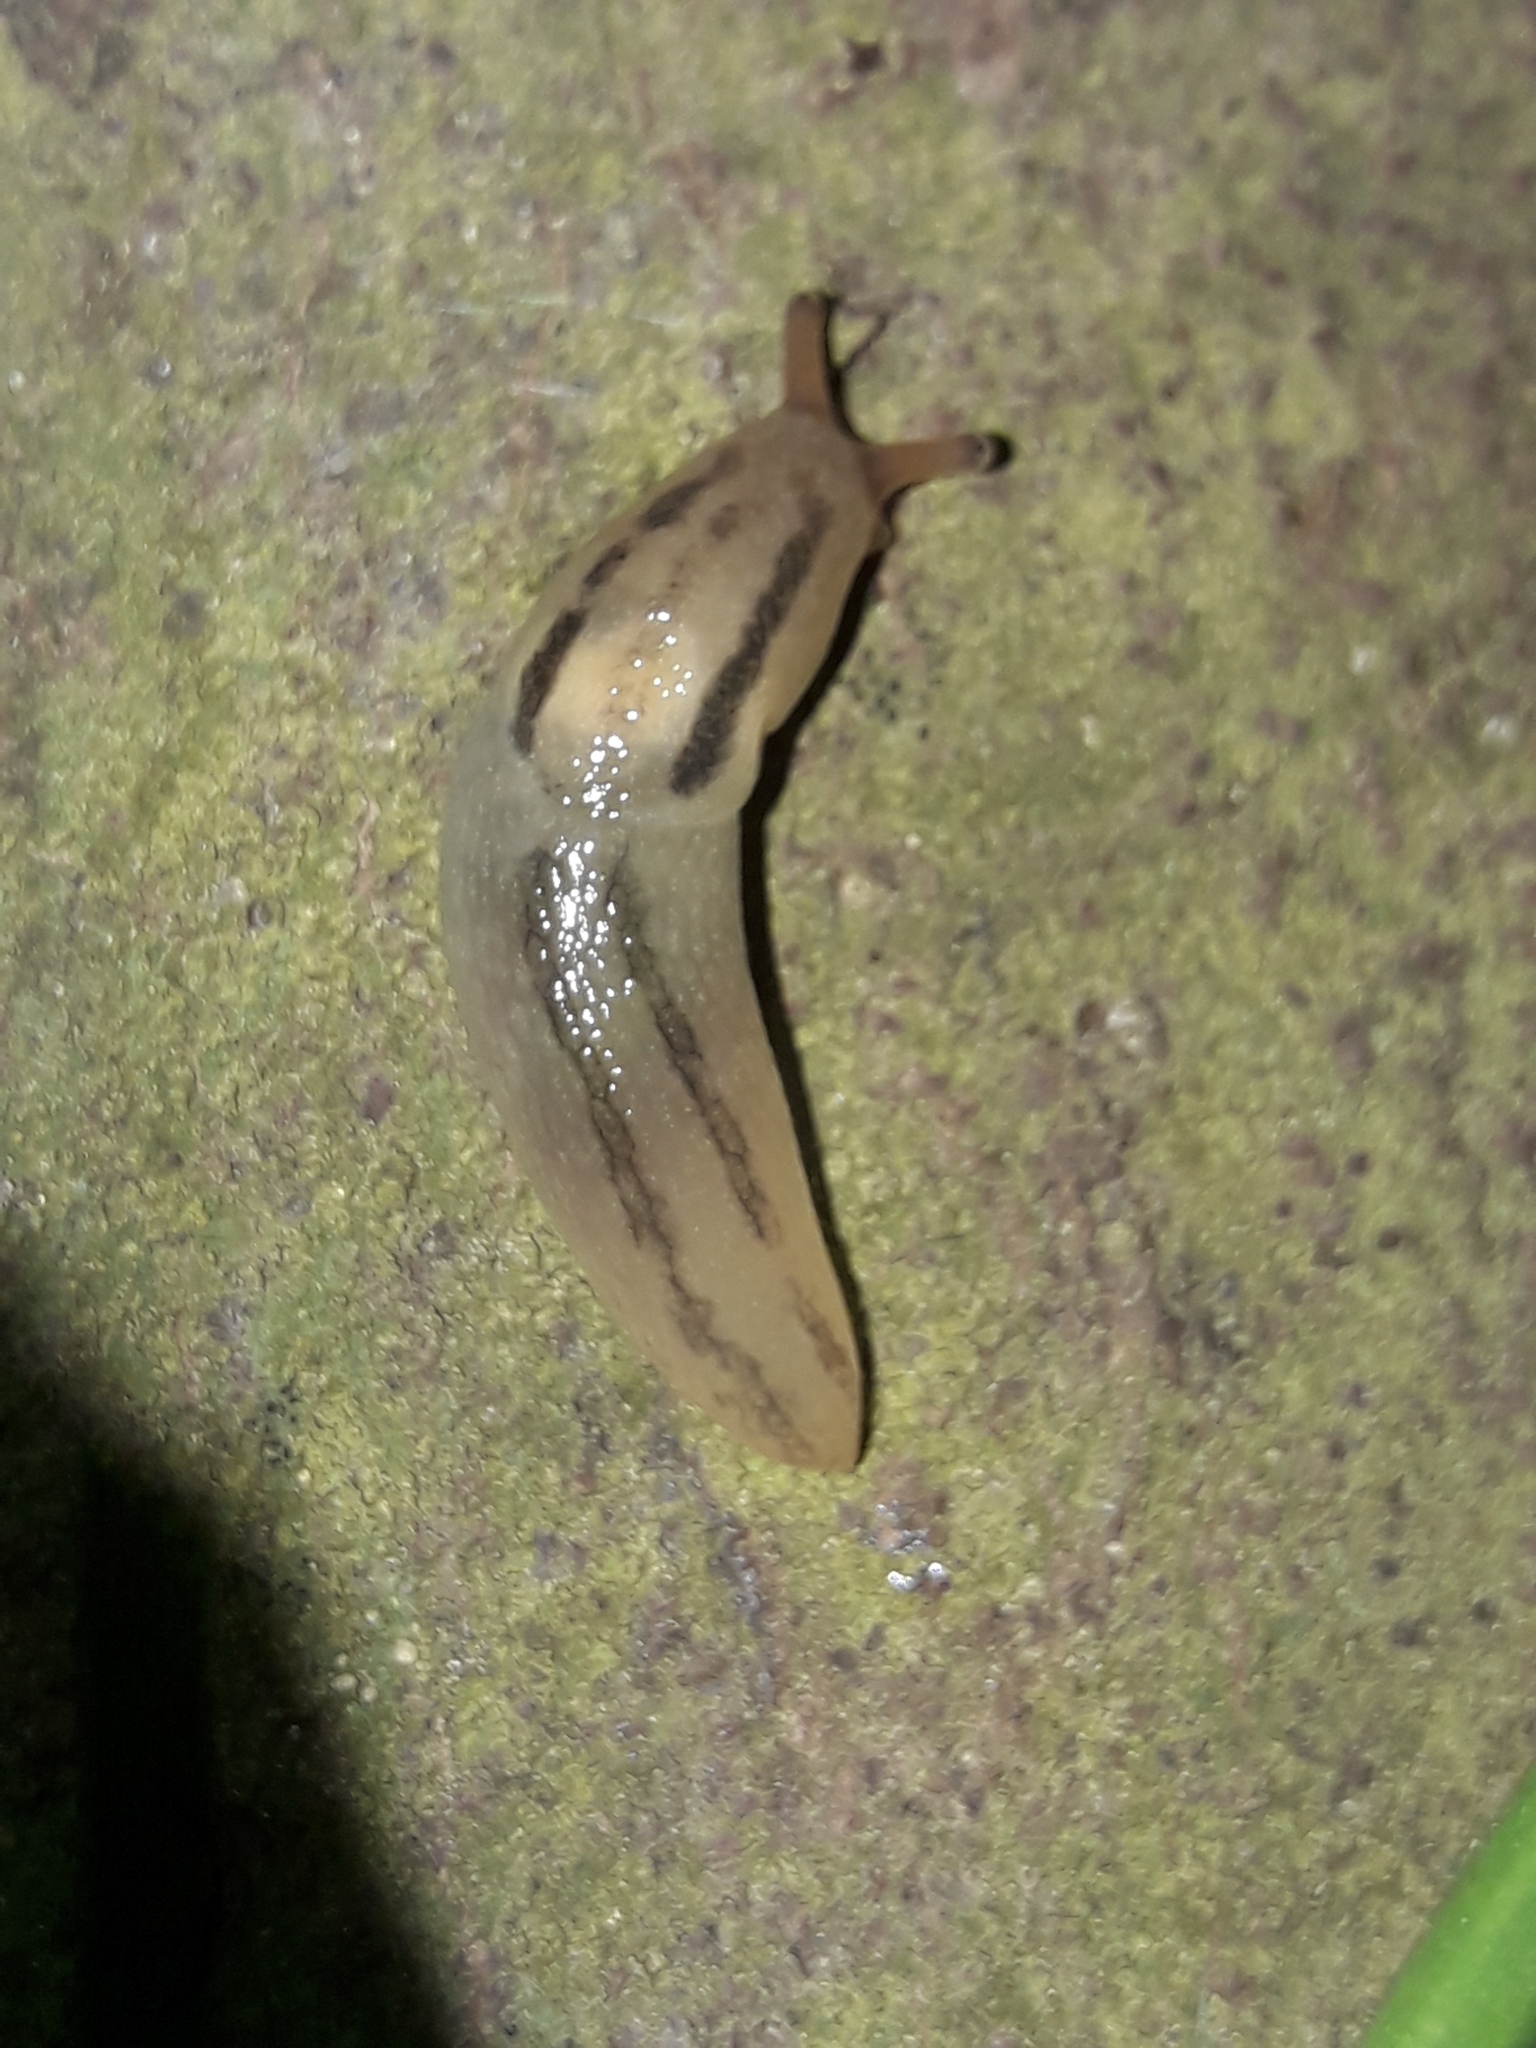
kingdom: Animalia
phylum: Mollusca
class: Gastropoda
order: Stylommatophora
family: Limacidae
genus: Ambigolimax
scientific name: Ambigolimax
